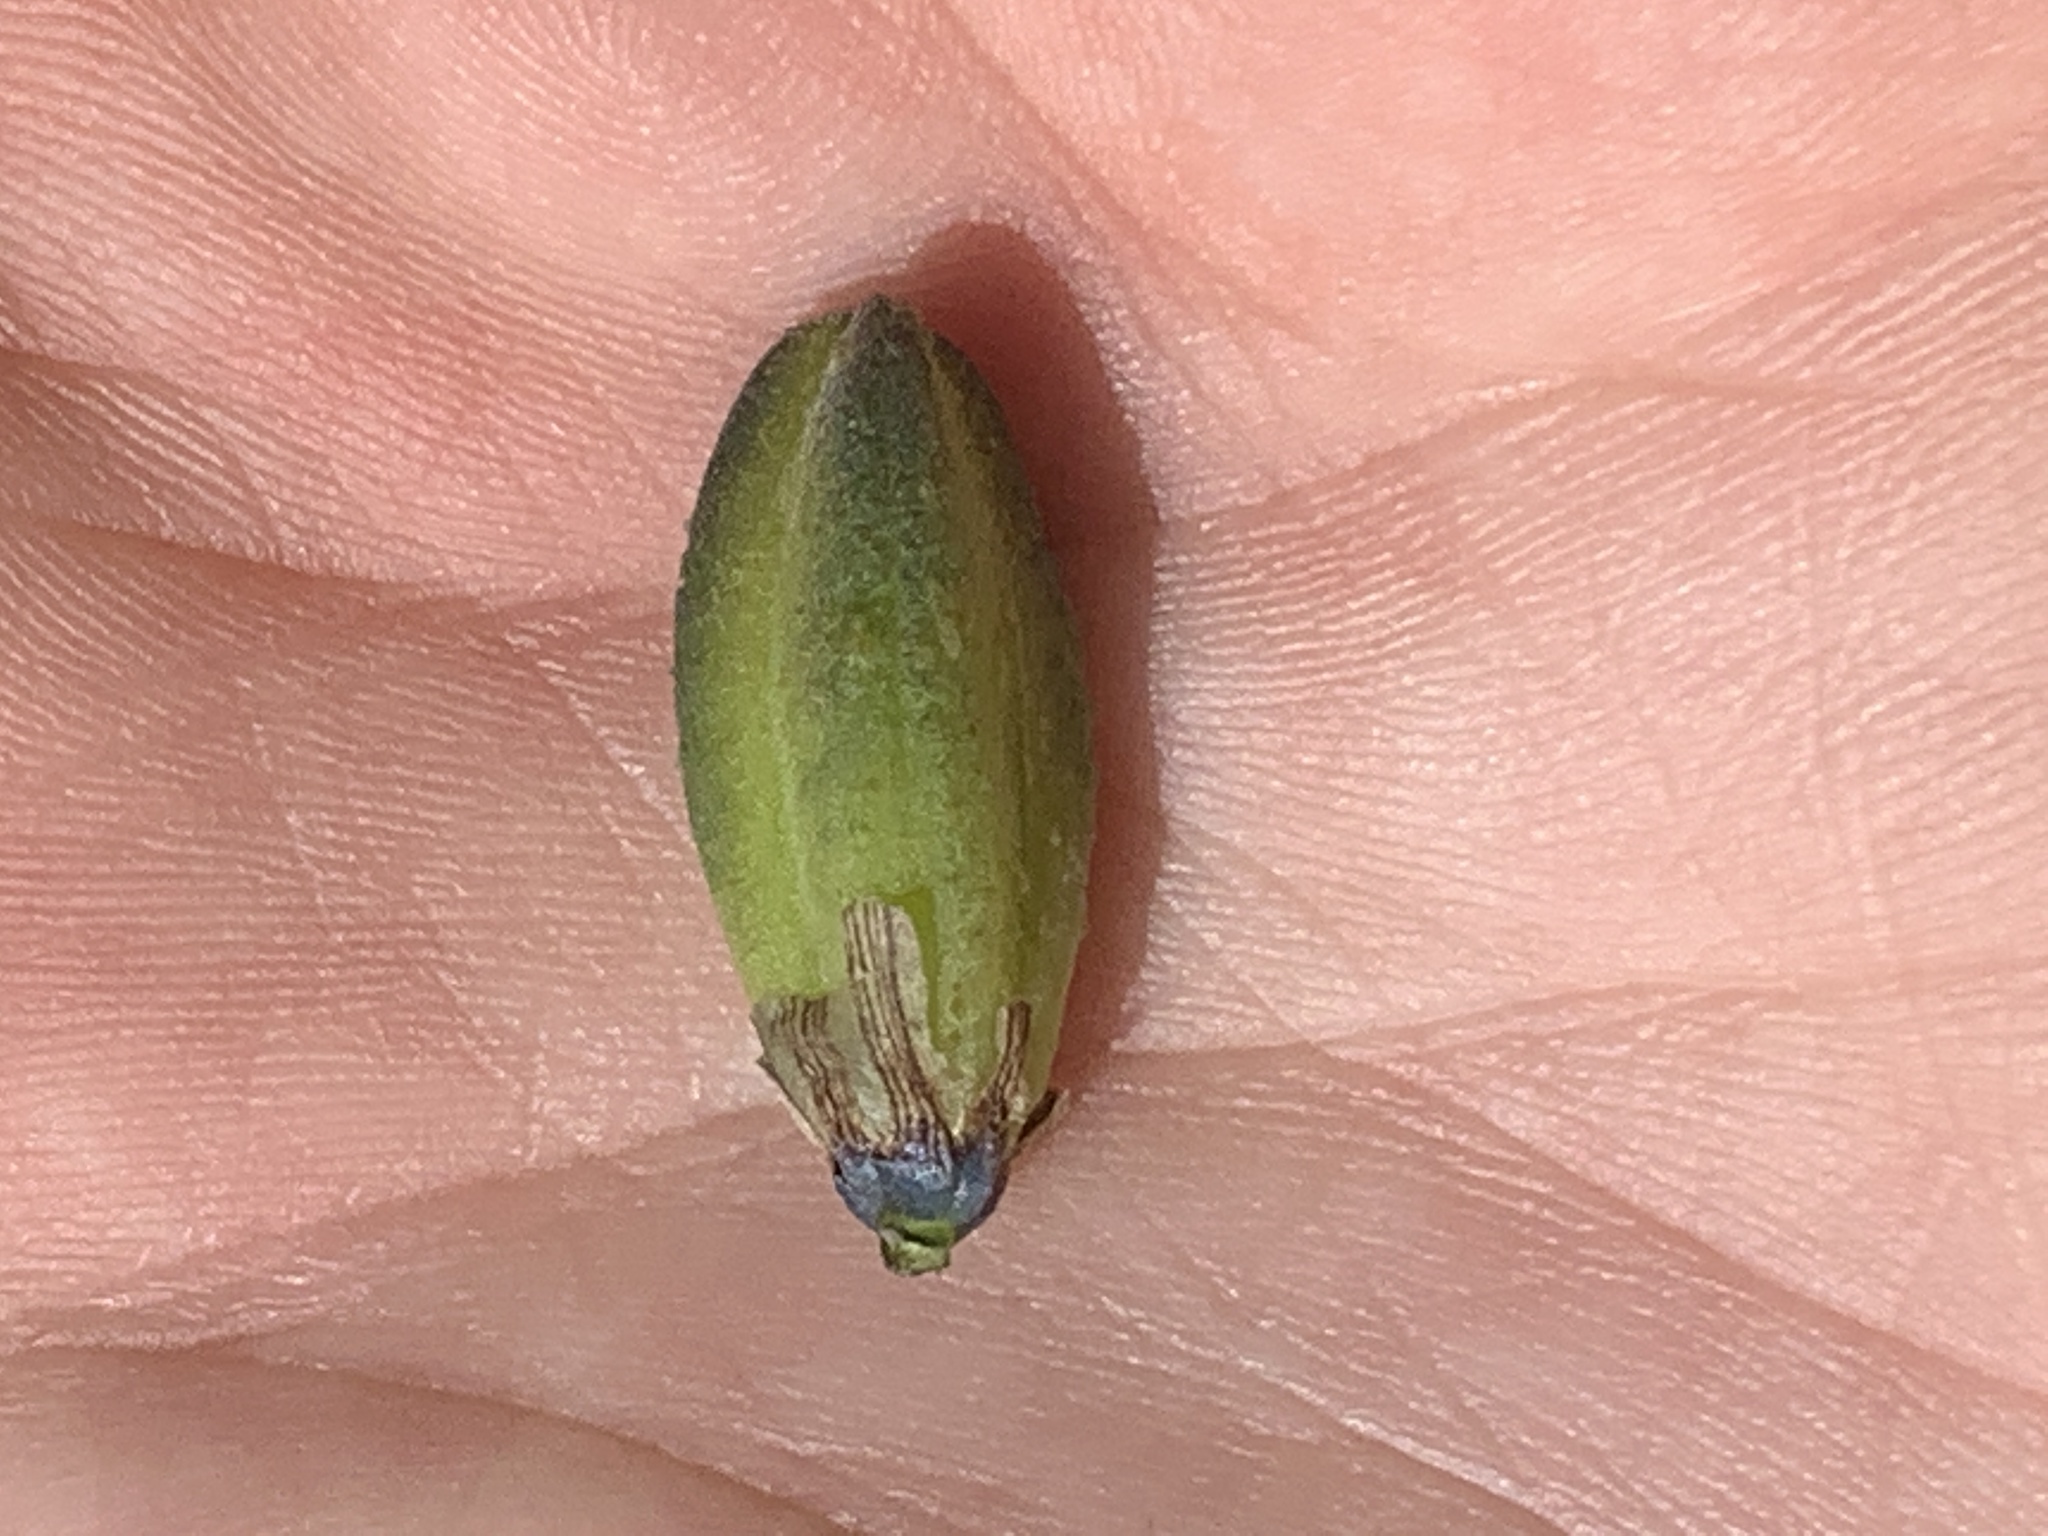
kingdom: Plantae
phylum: Tracheophyta
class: Liliopsida
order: Asparagales
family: Asparagaceae
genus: Camassia
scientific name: Camassia leichtlinii
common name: Leichtlin's camas
